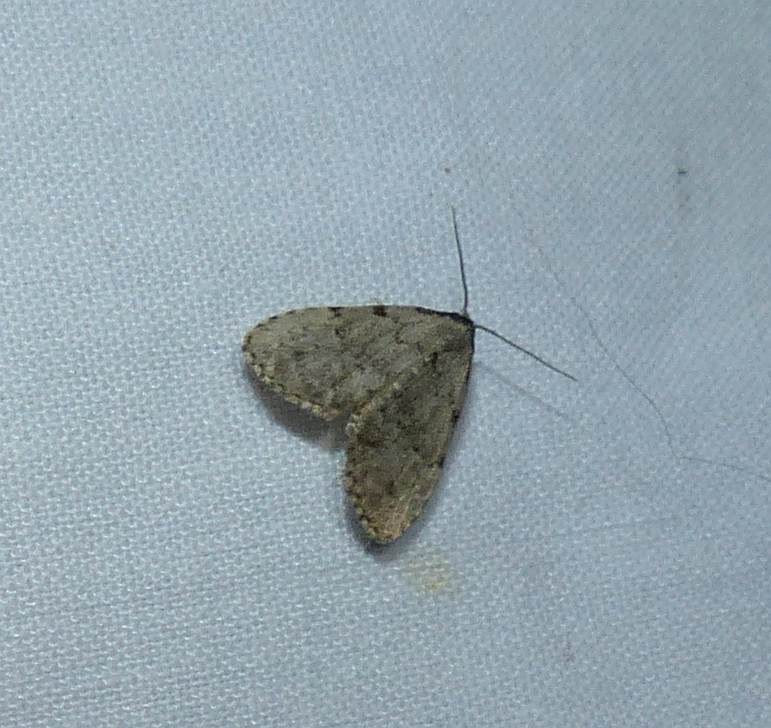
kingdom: Animalia
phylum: Arthropoda
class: Insecta
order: Lepidoptera
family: Erebidae
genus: Dyspyralis
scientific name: Dyspyralis puncticosta
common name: Spot-edged dyspyralis moth
